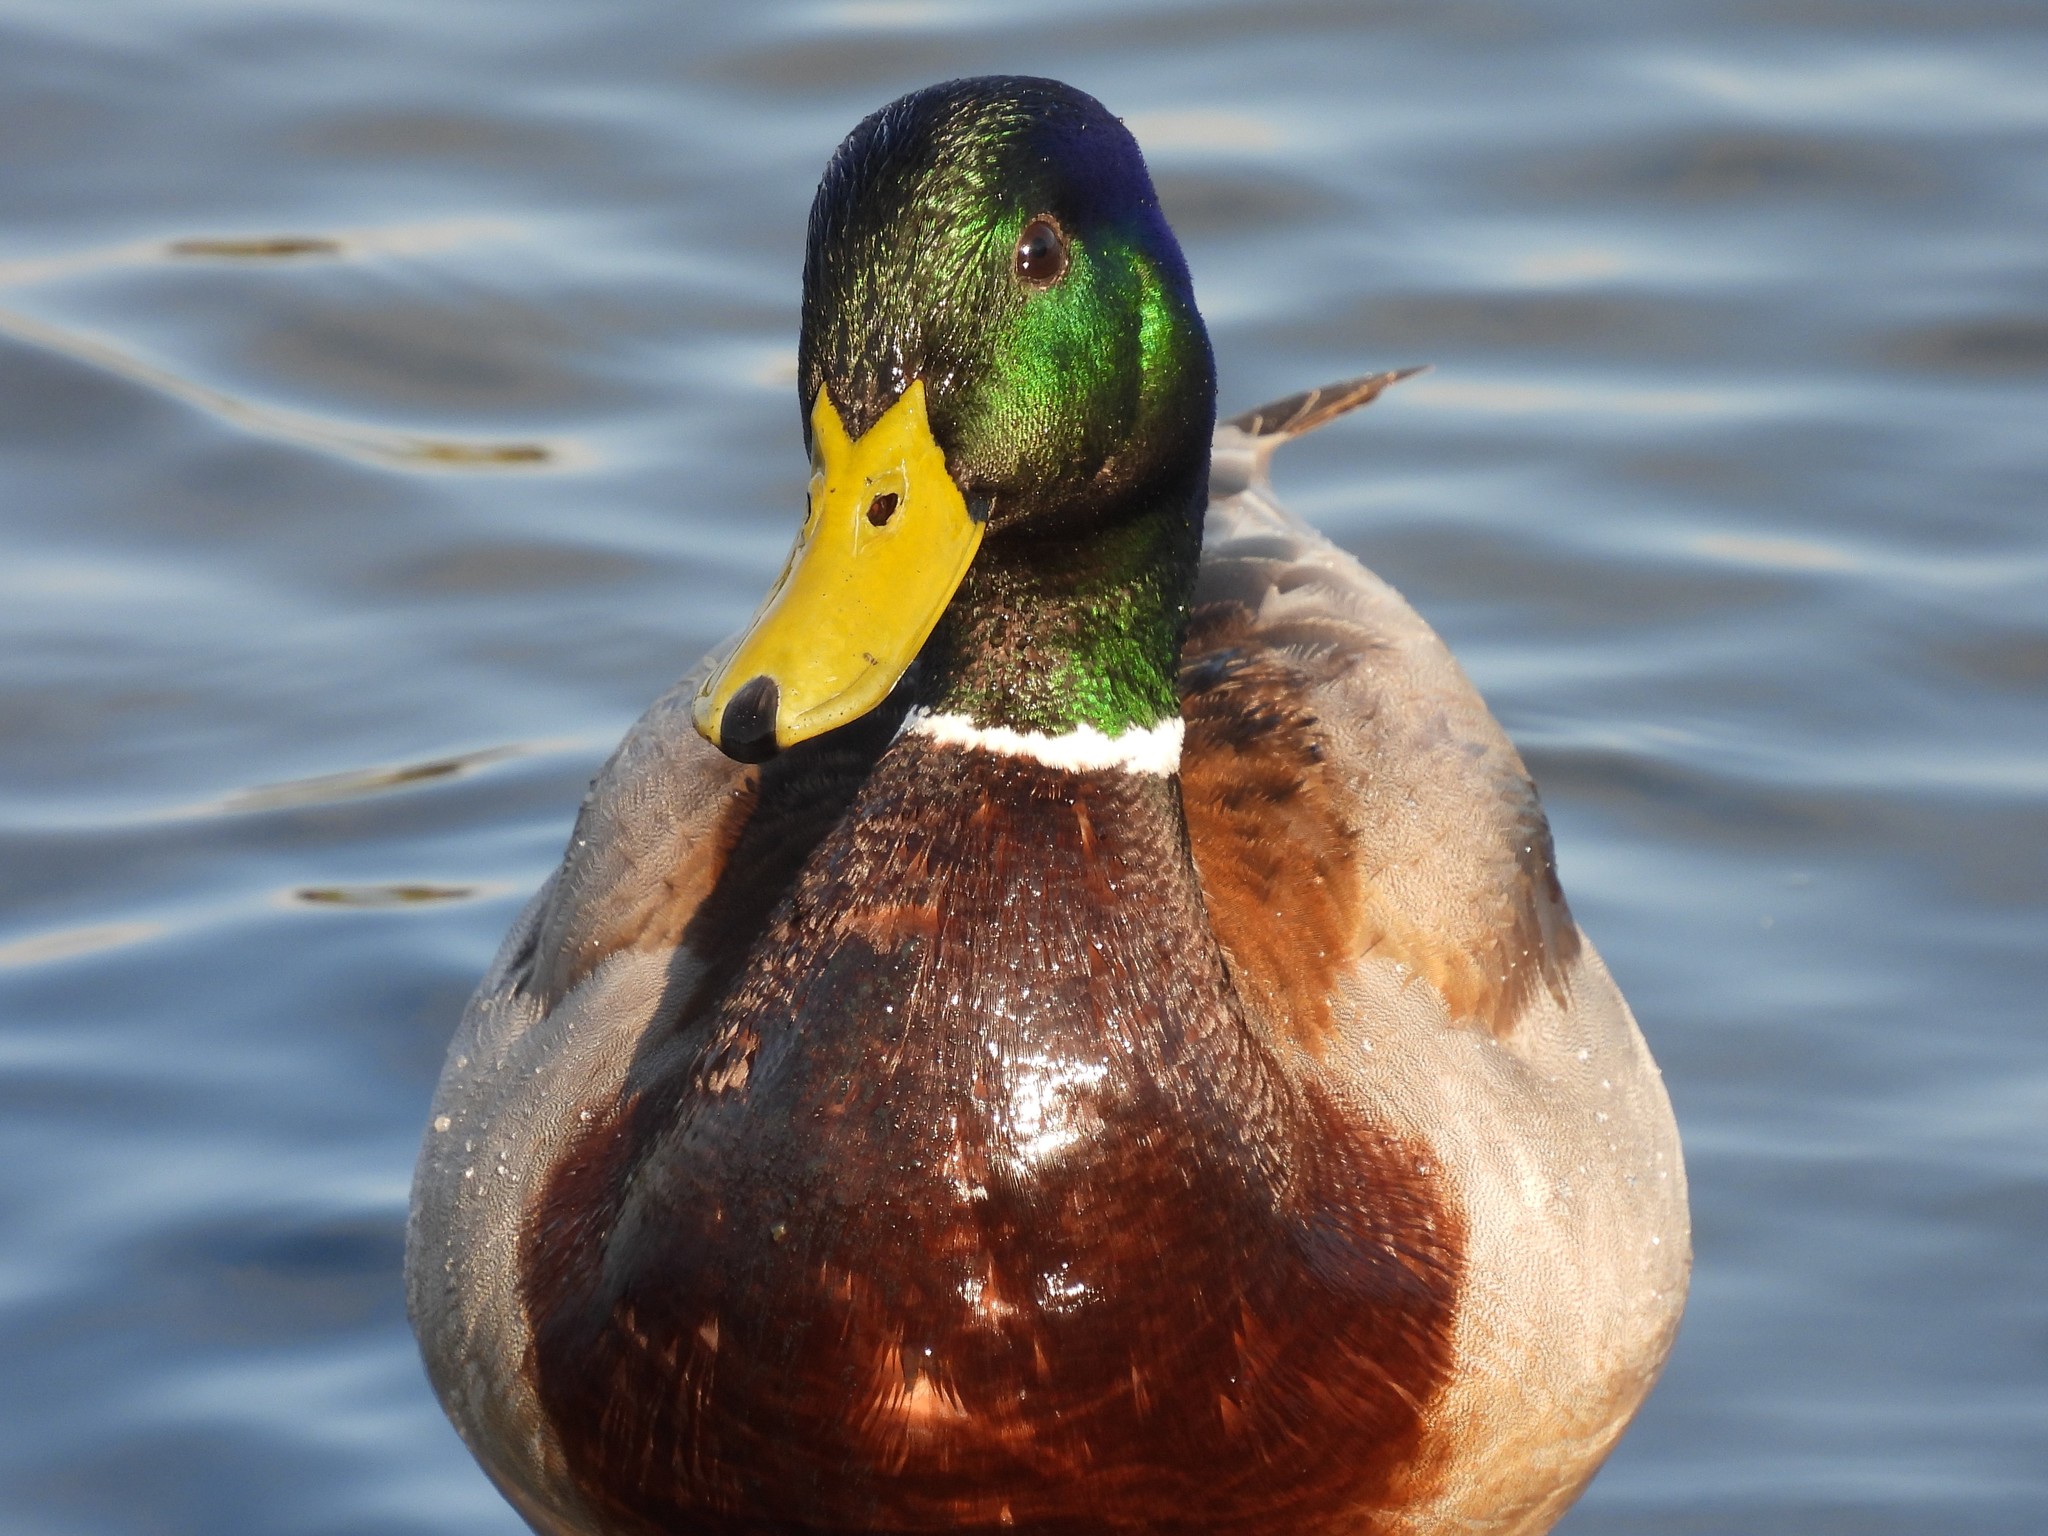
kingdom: Animalia
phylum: Chordata
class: Aves
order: Anseriformes
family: Anatidae
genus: Anas
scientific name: Anas platyrhynchos
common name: Mallard
